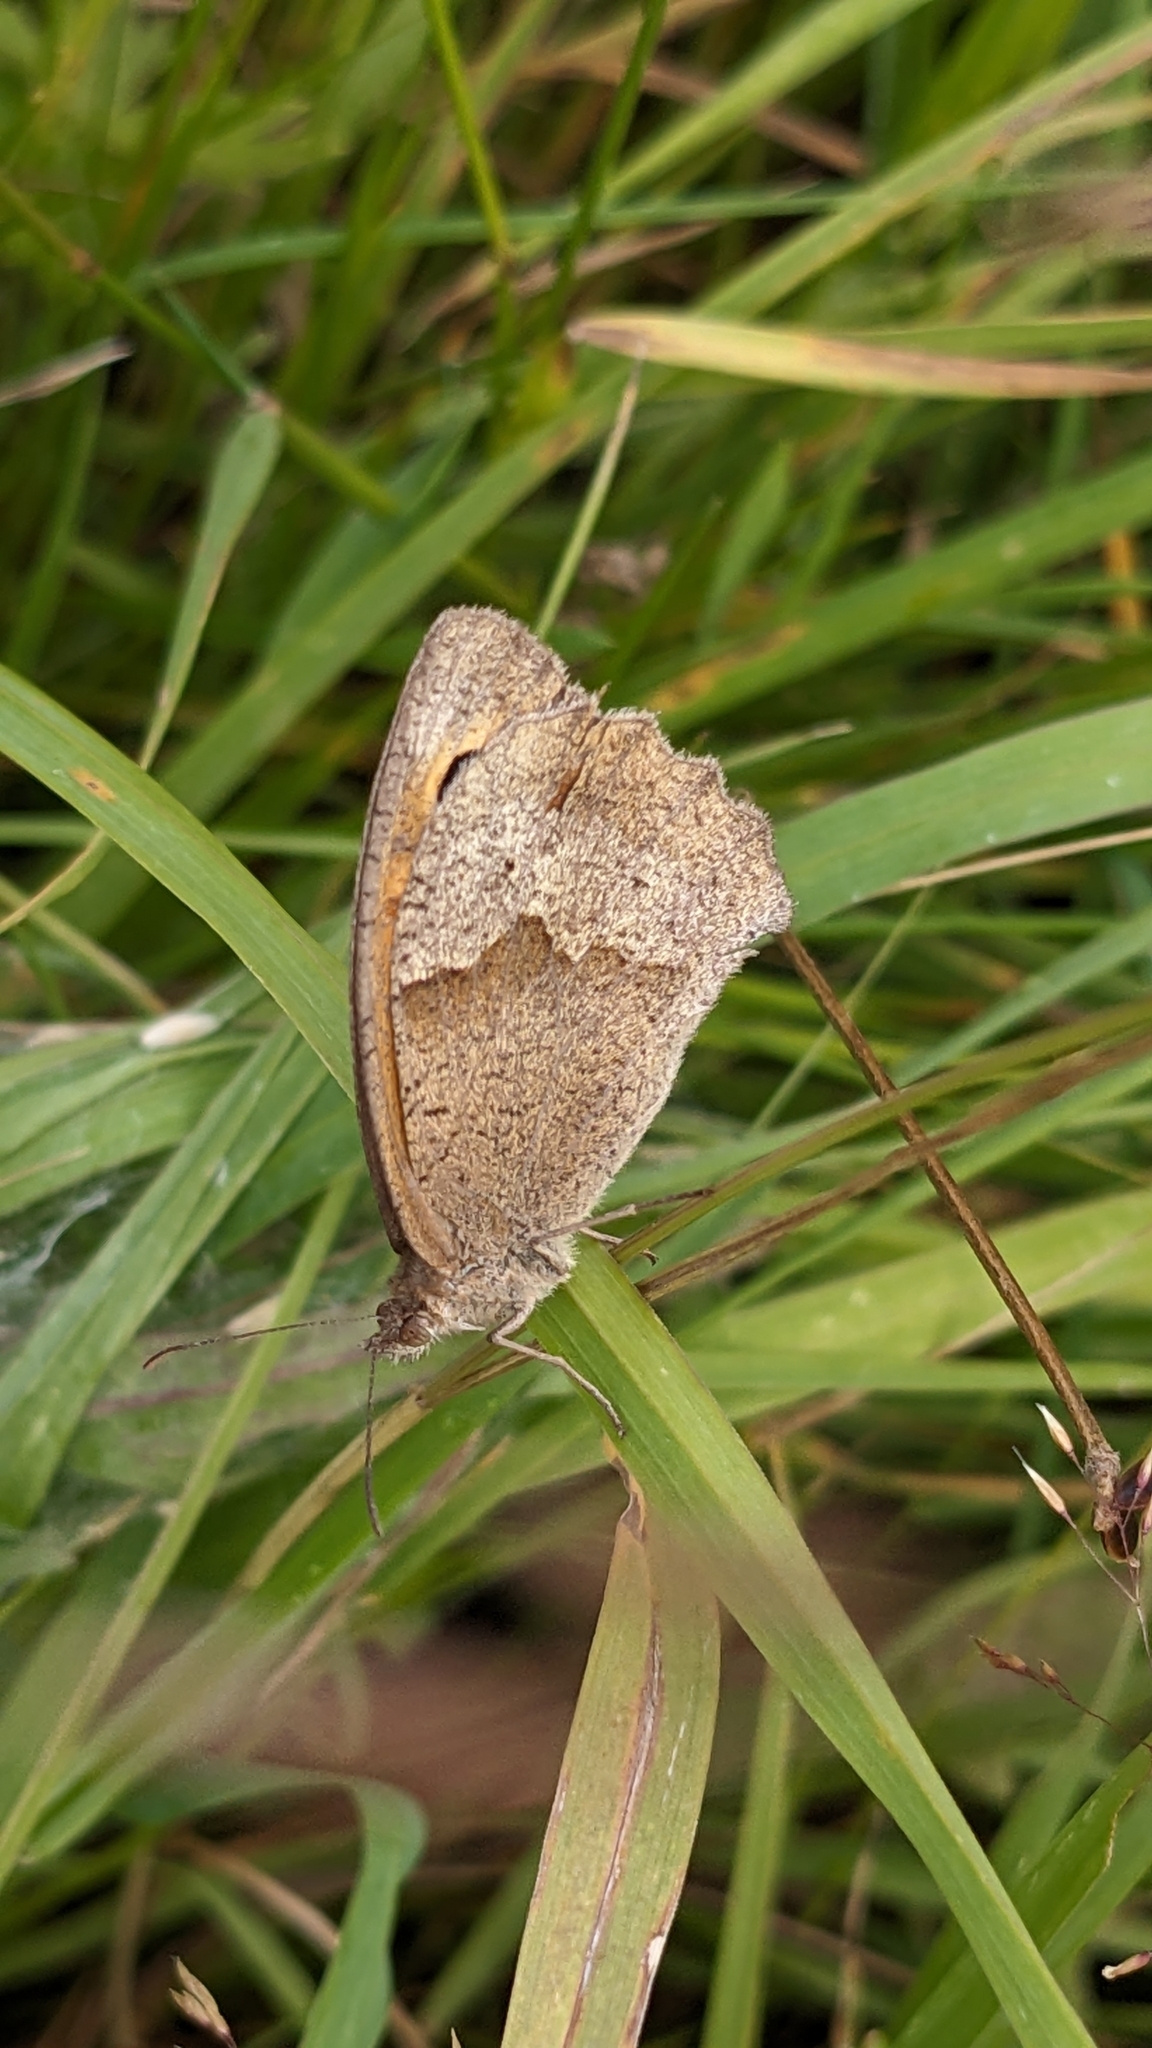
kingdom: Animalia
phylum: Arthropoda
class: Insecta
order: Lepidoptera
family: Nymphalidae
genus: Maniola
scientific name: Maniola jurtina
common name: Meadow brown
